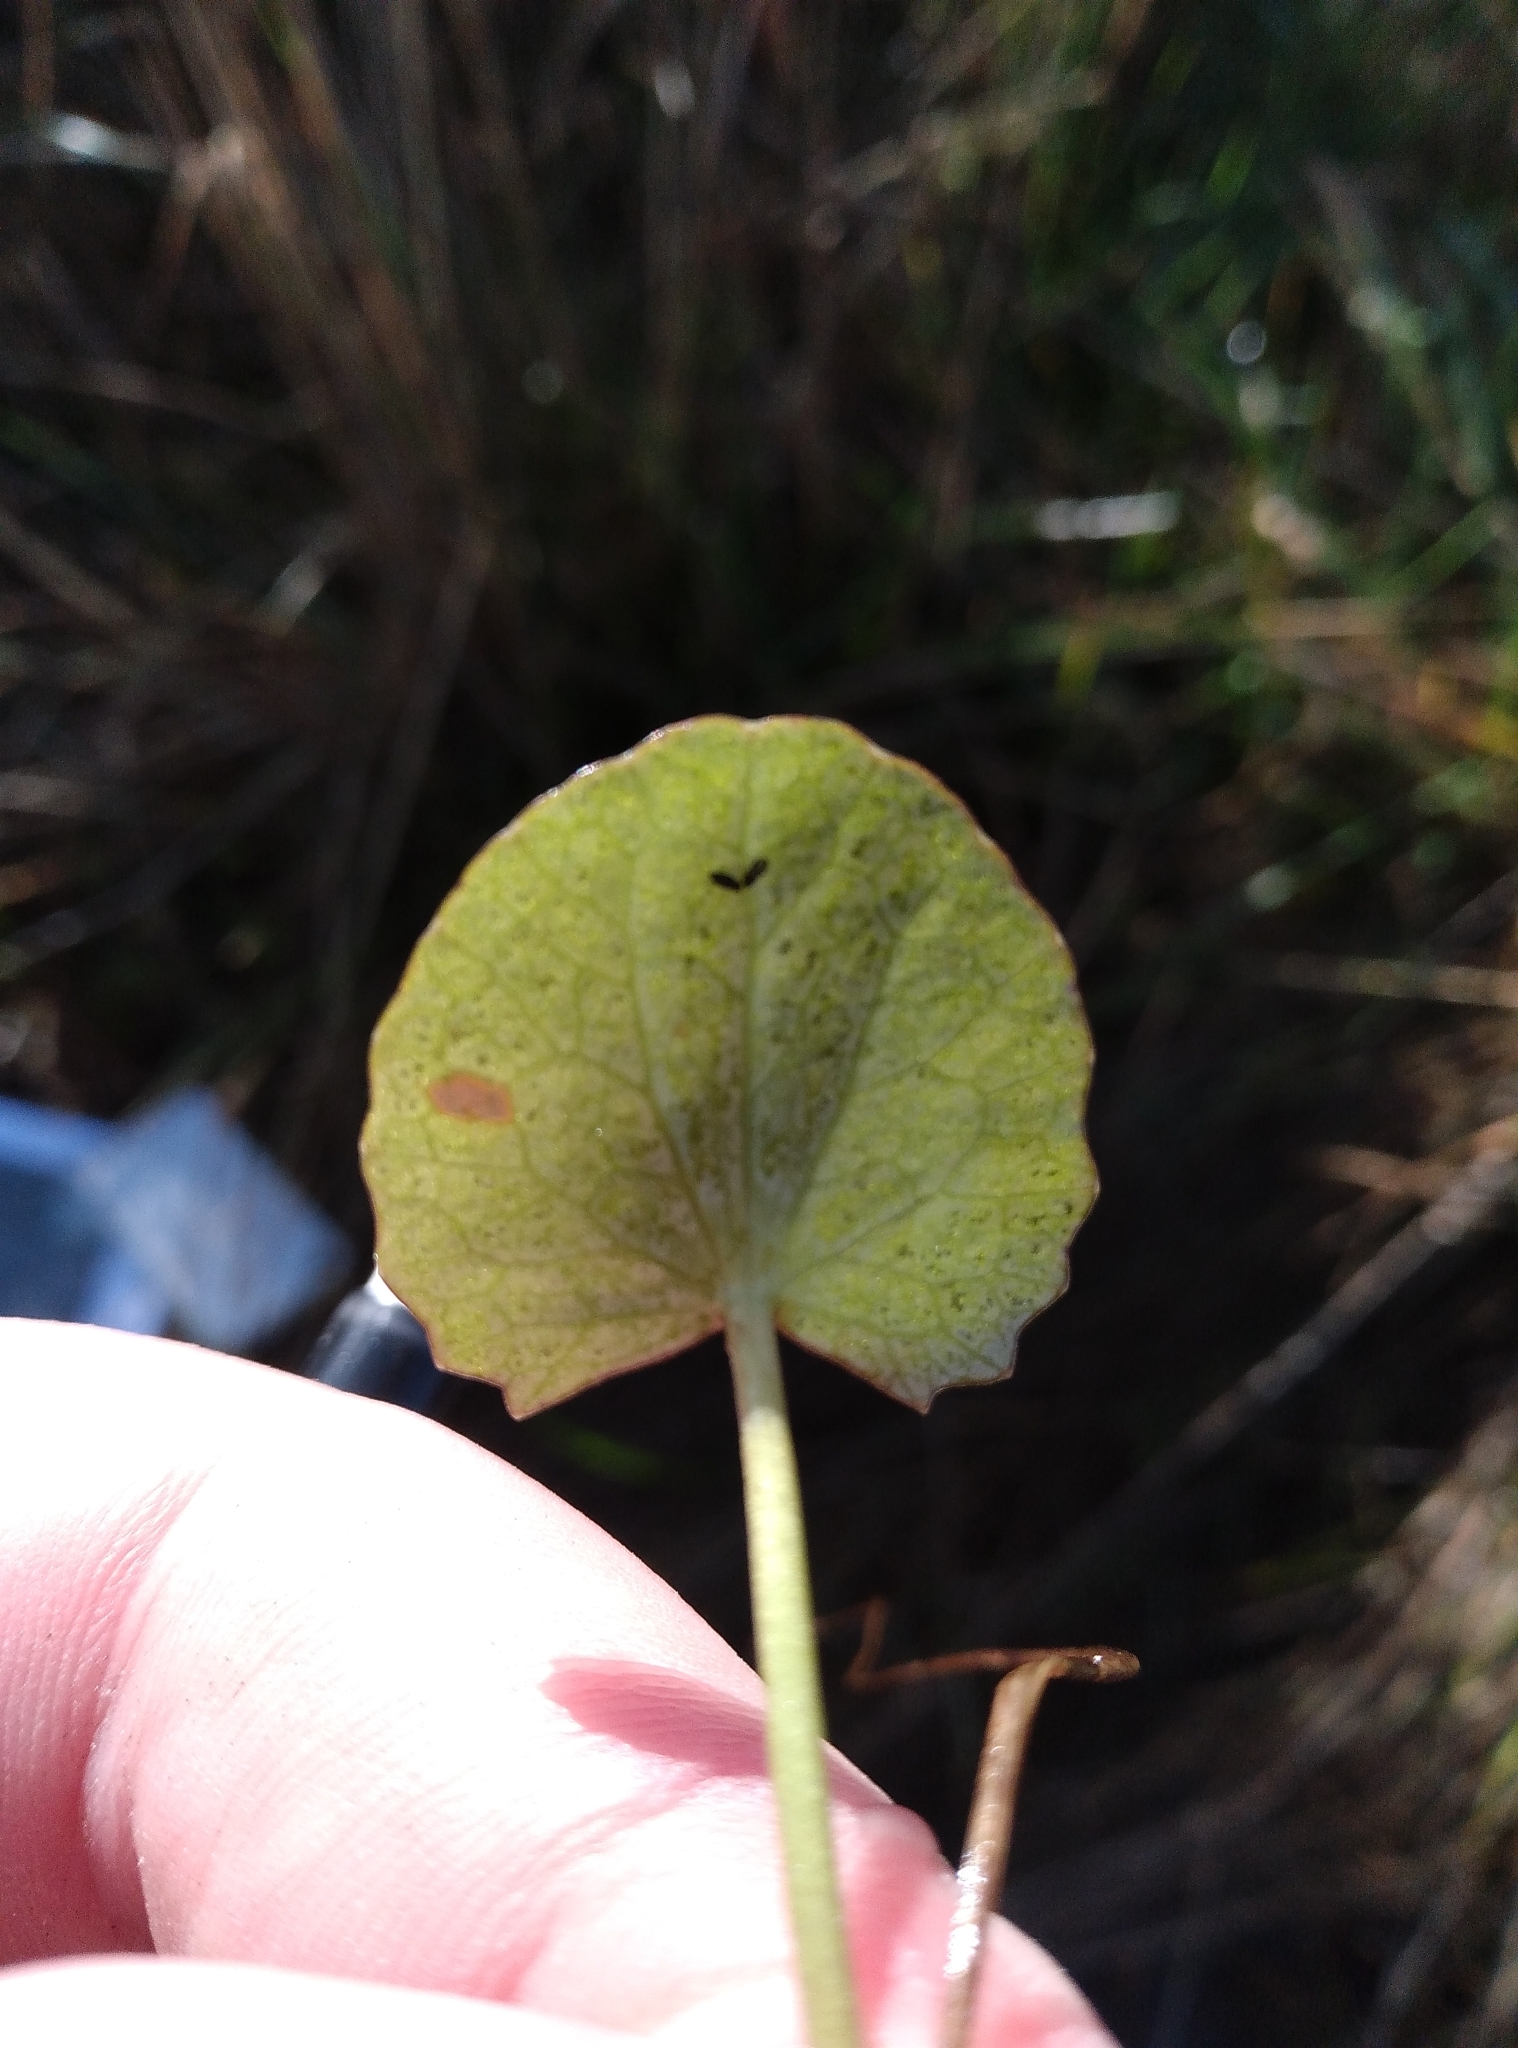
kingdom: Plantae
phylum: Tracheophyta
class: Magnoliopsida
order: Apiales
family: Apiaceae
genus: Centella
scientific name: Centella uniflora
